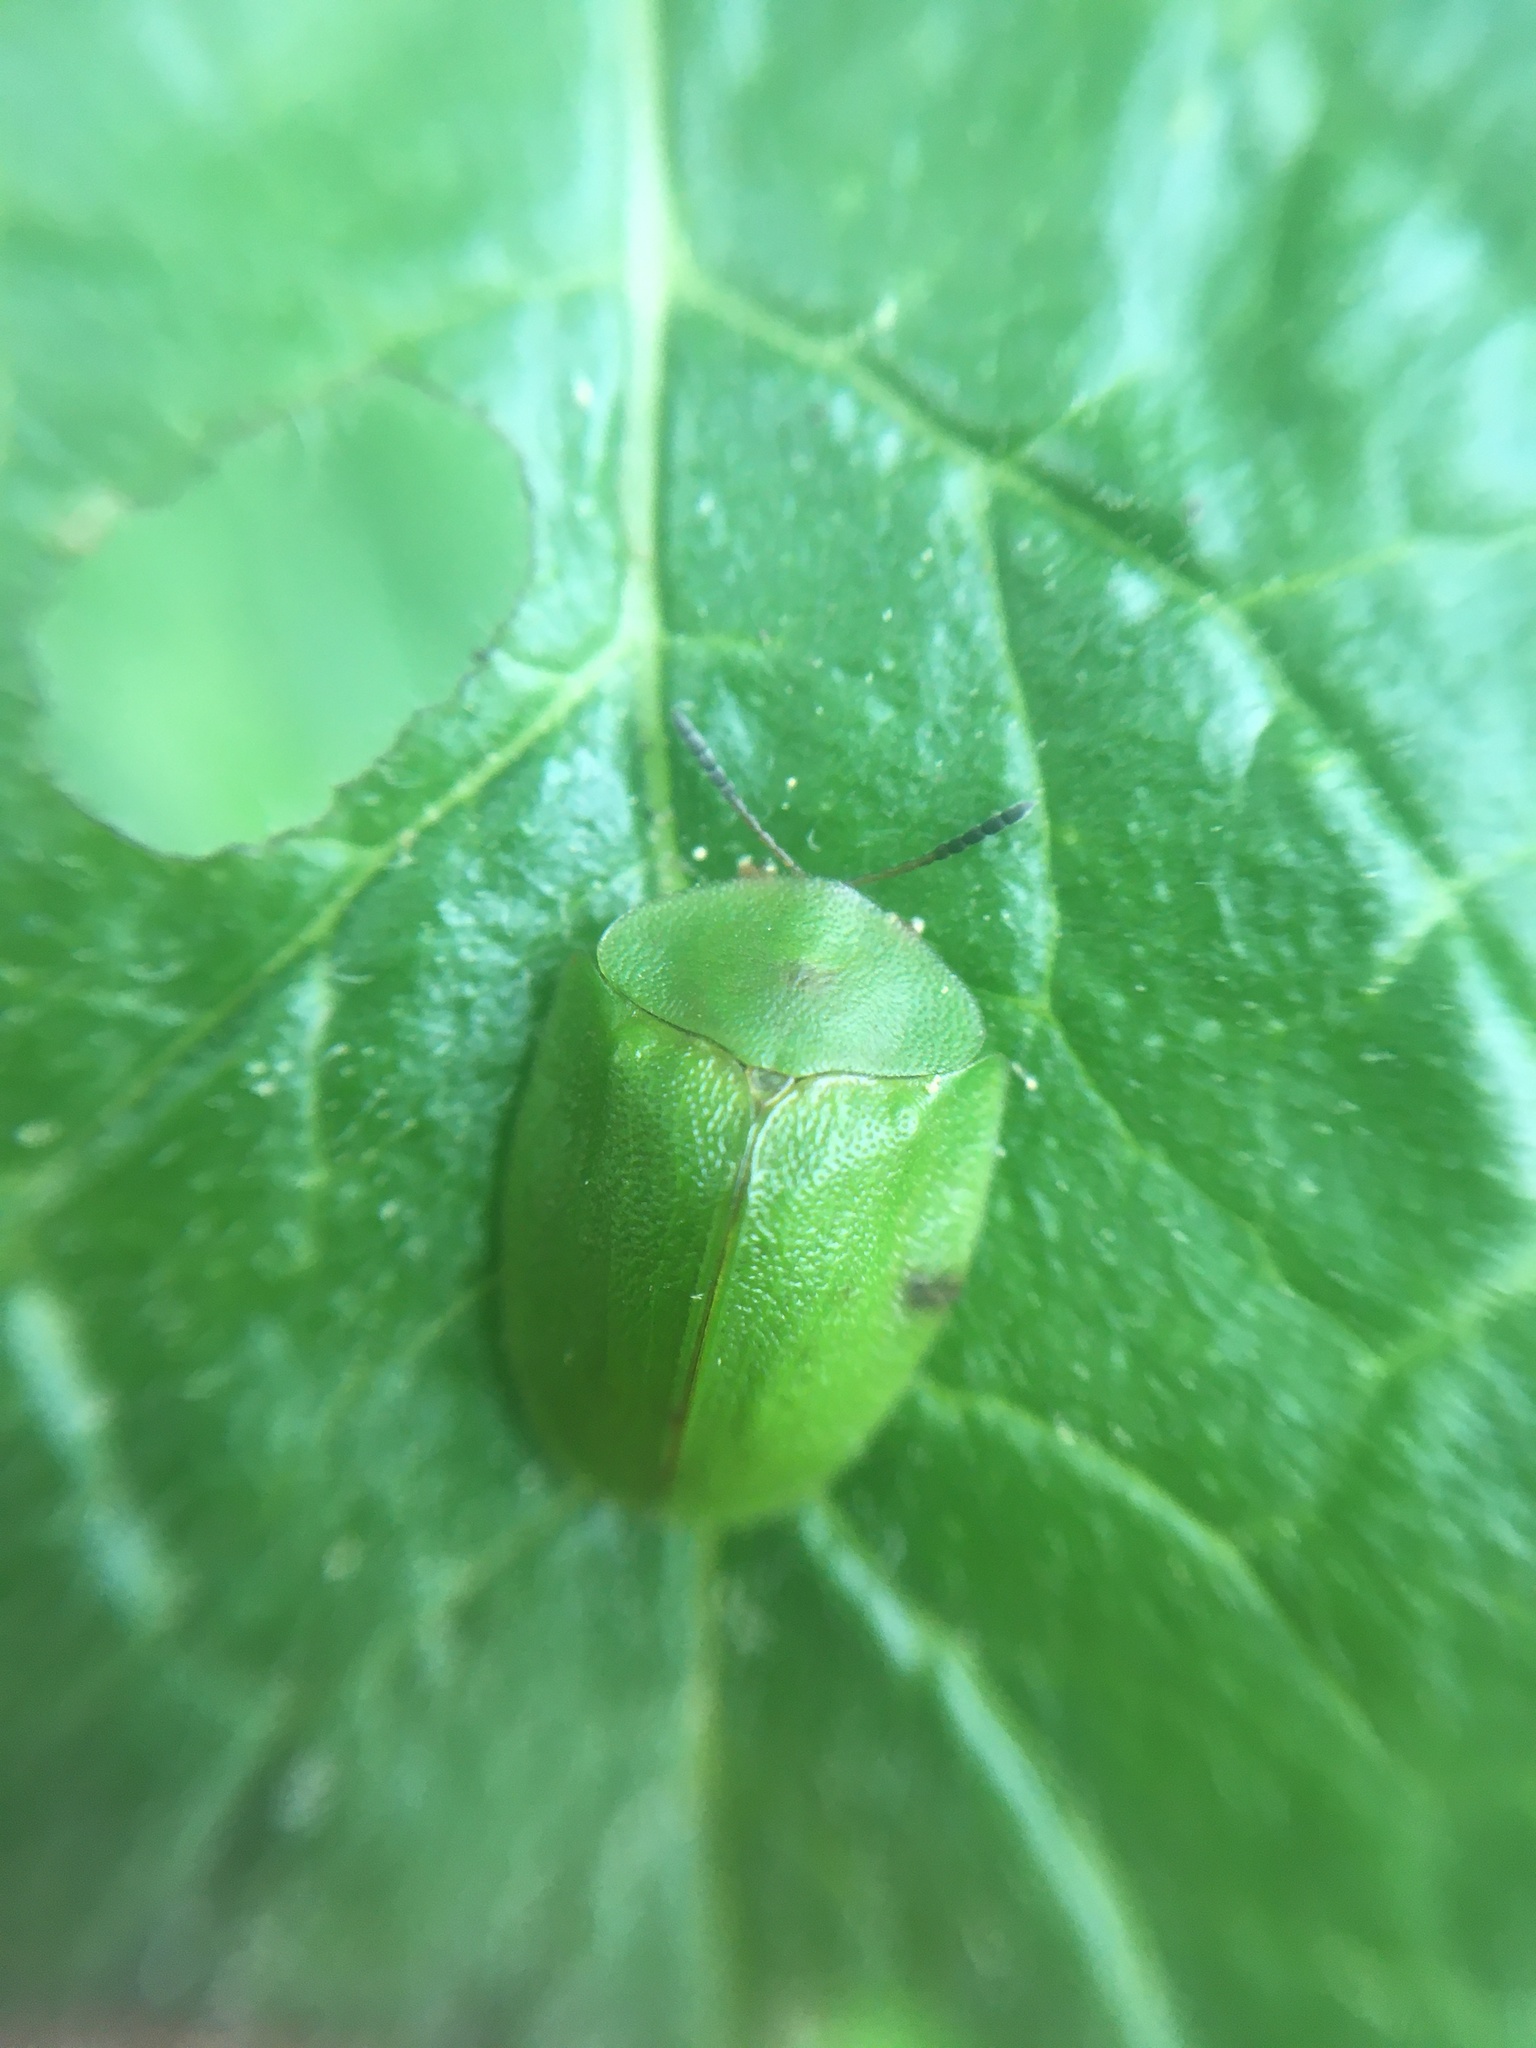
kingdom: Animalia
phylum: Arthropoda
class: Insecta
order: Coleoptera
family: Chrysomelidae
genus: Cassida
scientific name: Cassida viridis
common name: Green tortoise beetle
